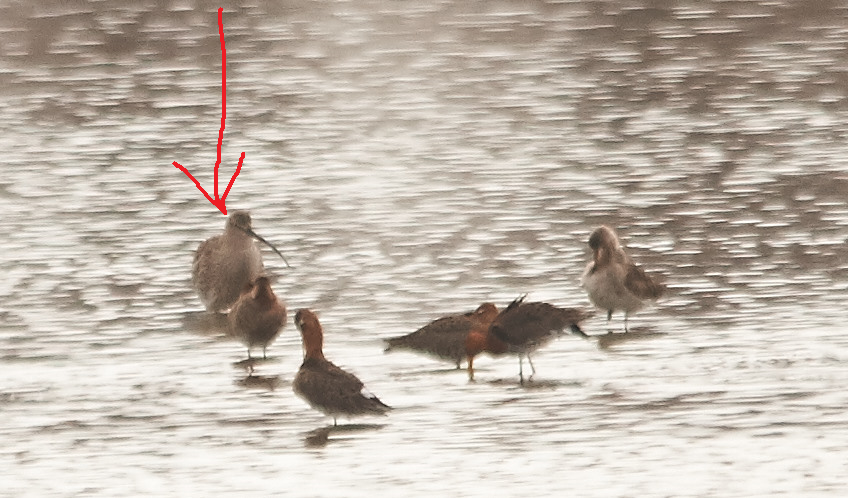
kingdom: Animalia
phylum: Chordata
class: Aves
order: Charadriiformes
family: Scolopacidae
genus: Numenius
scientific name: Numenius arquata
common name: Eurasian curlew
